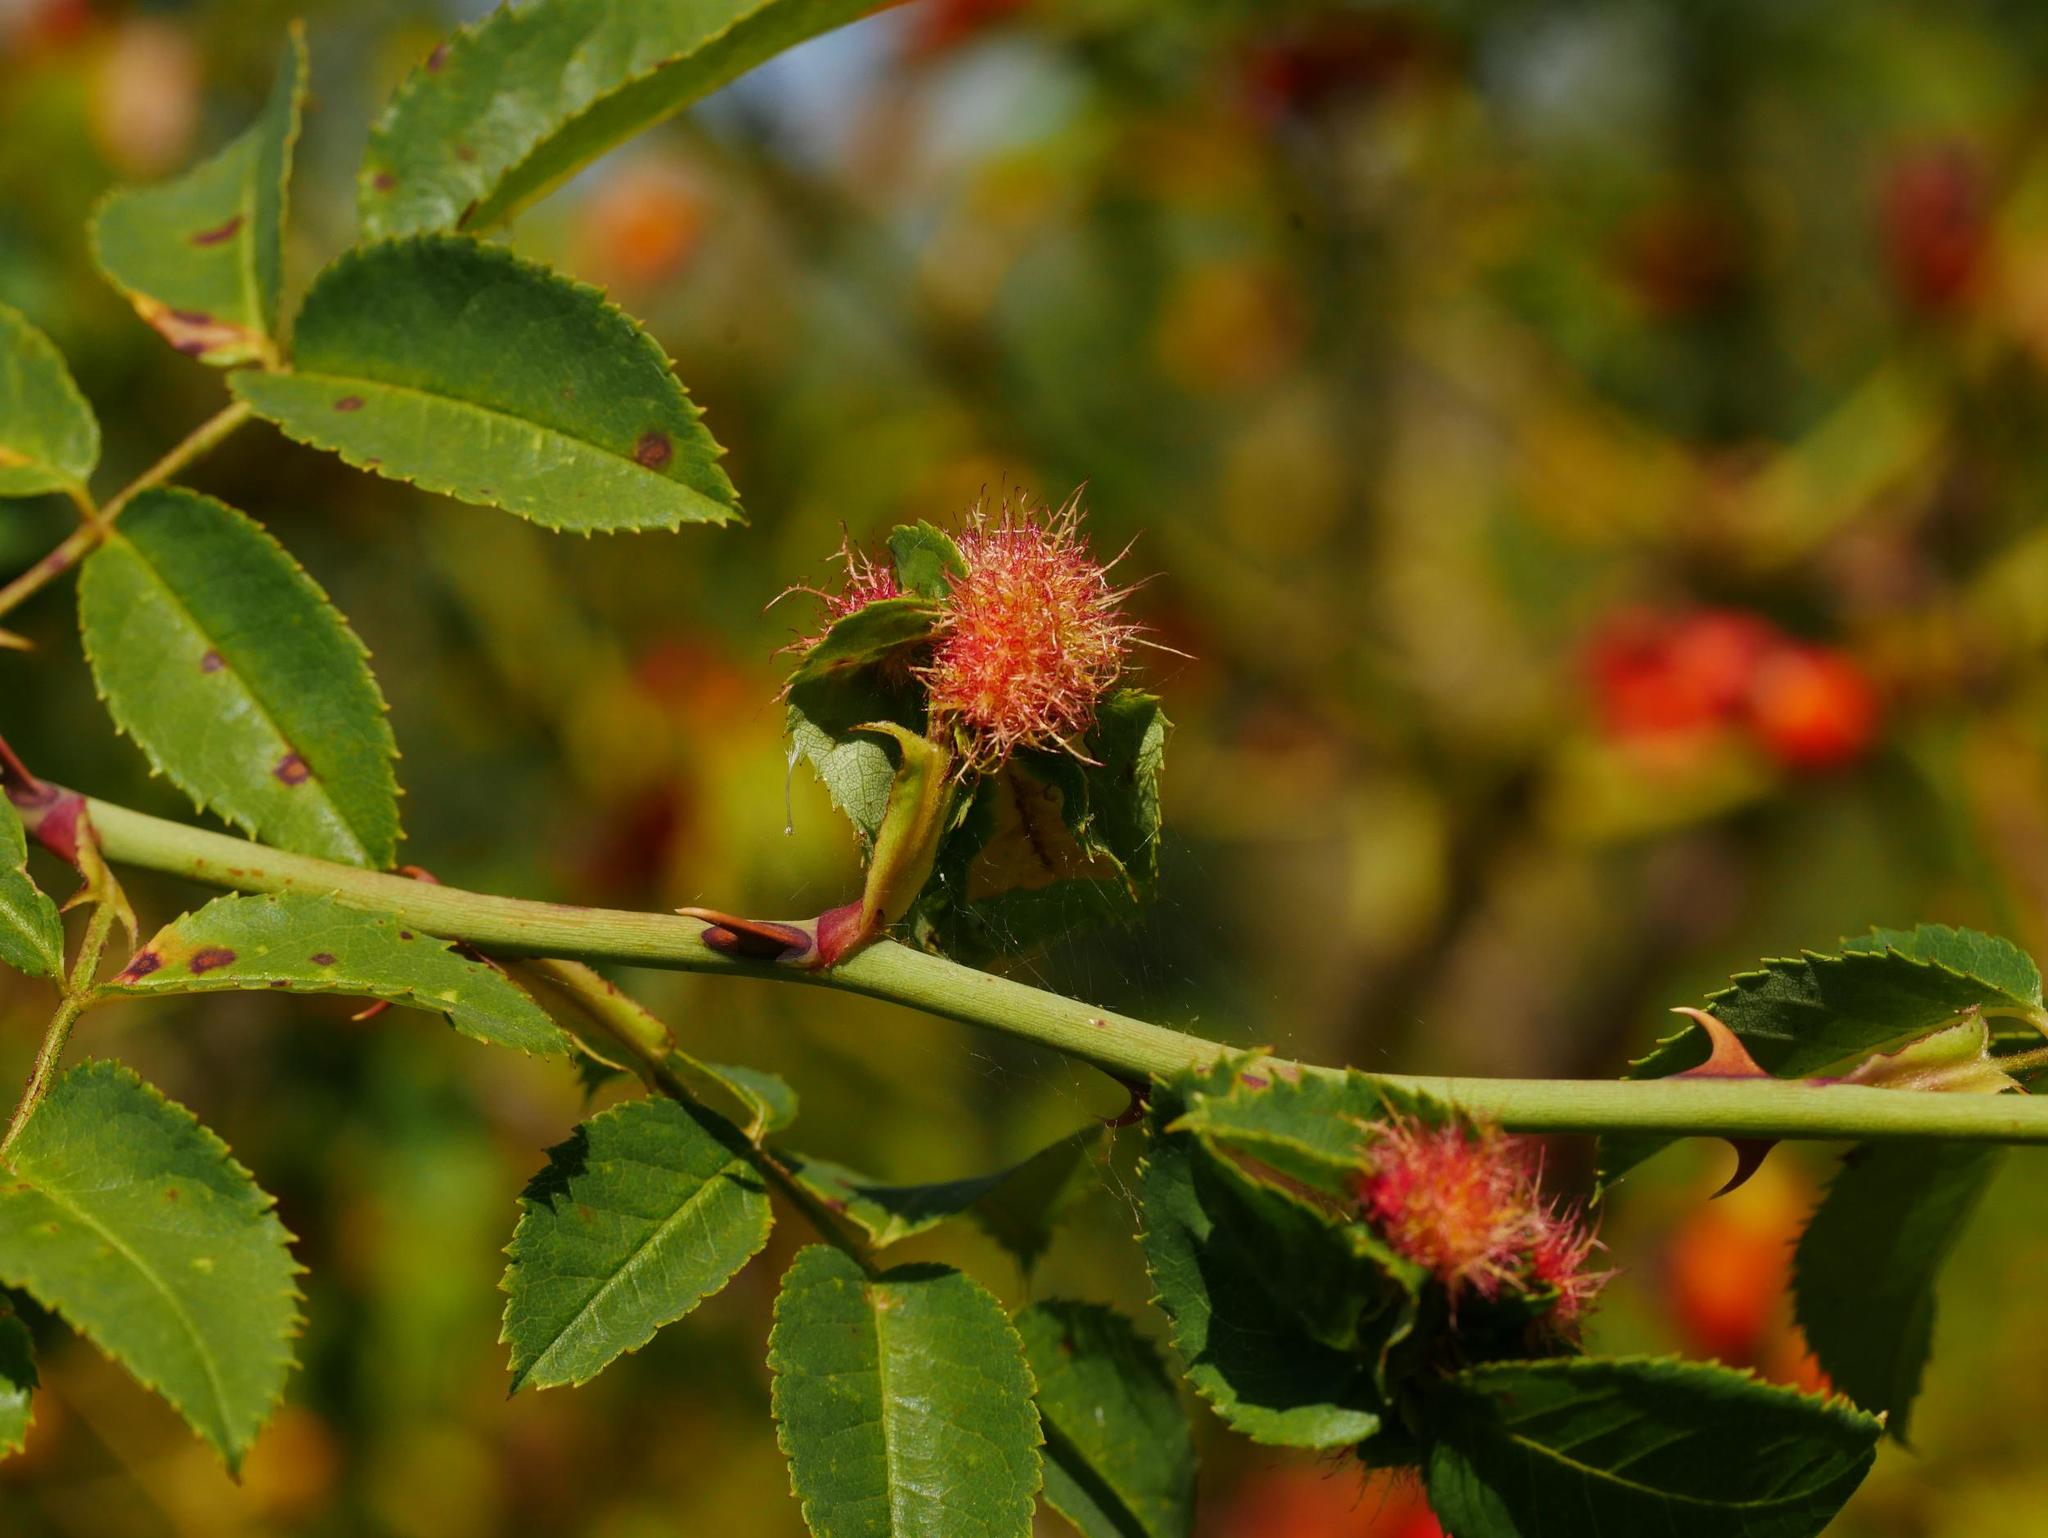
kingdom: Animalia
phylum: Arthropoda
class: Insecta
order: Hymenoptera
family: Cynipidae
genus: Diplolepis
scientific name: Diplolepis rosae
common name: Bedeguar gall
